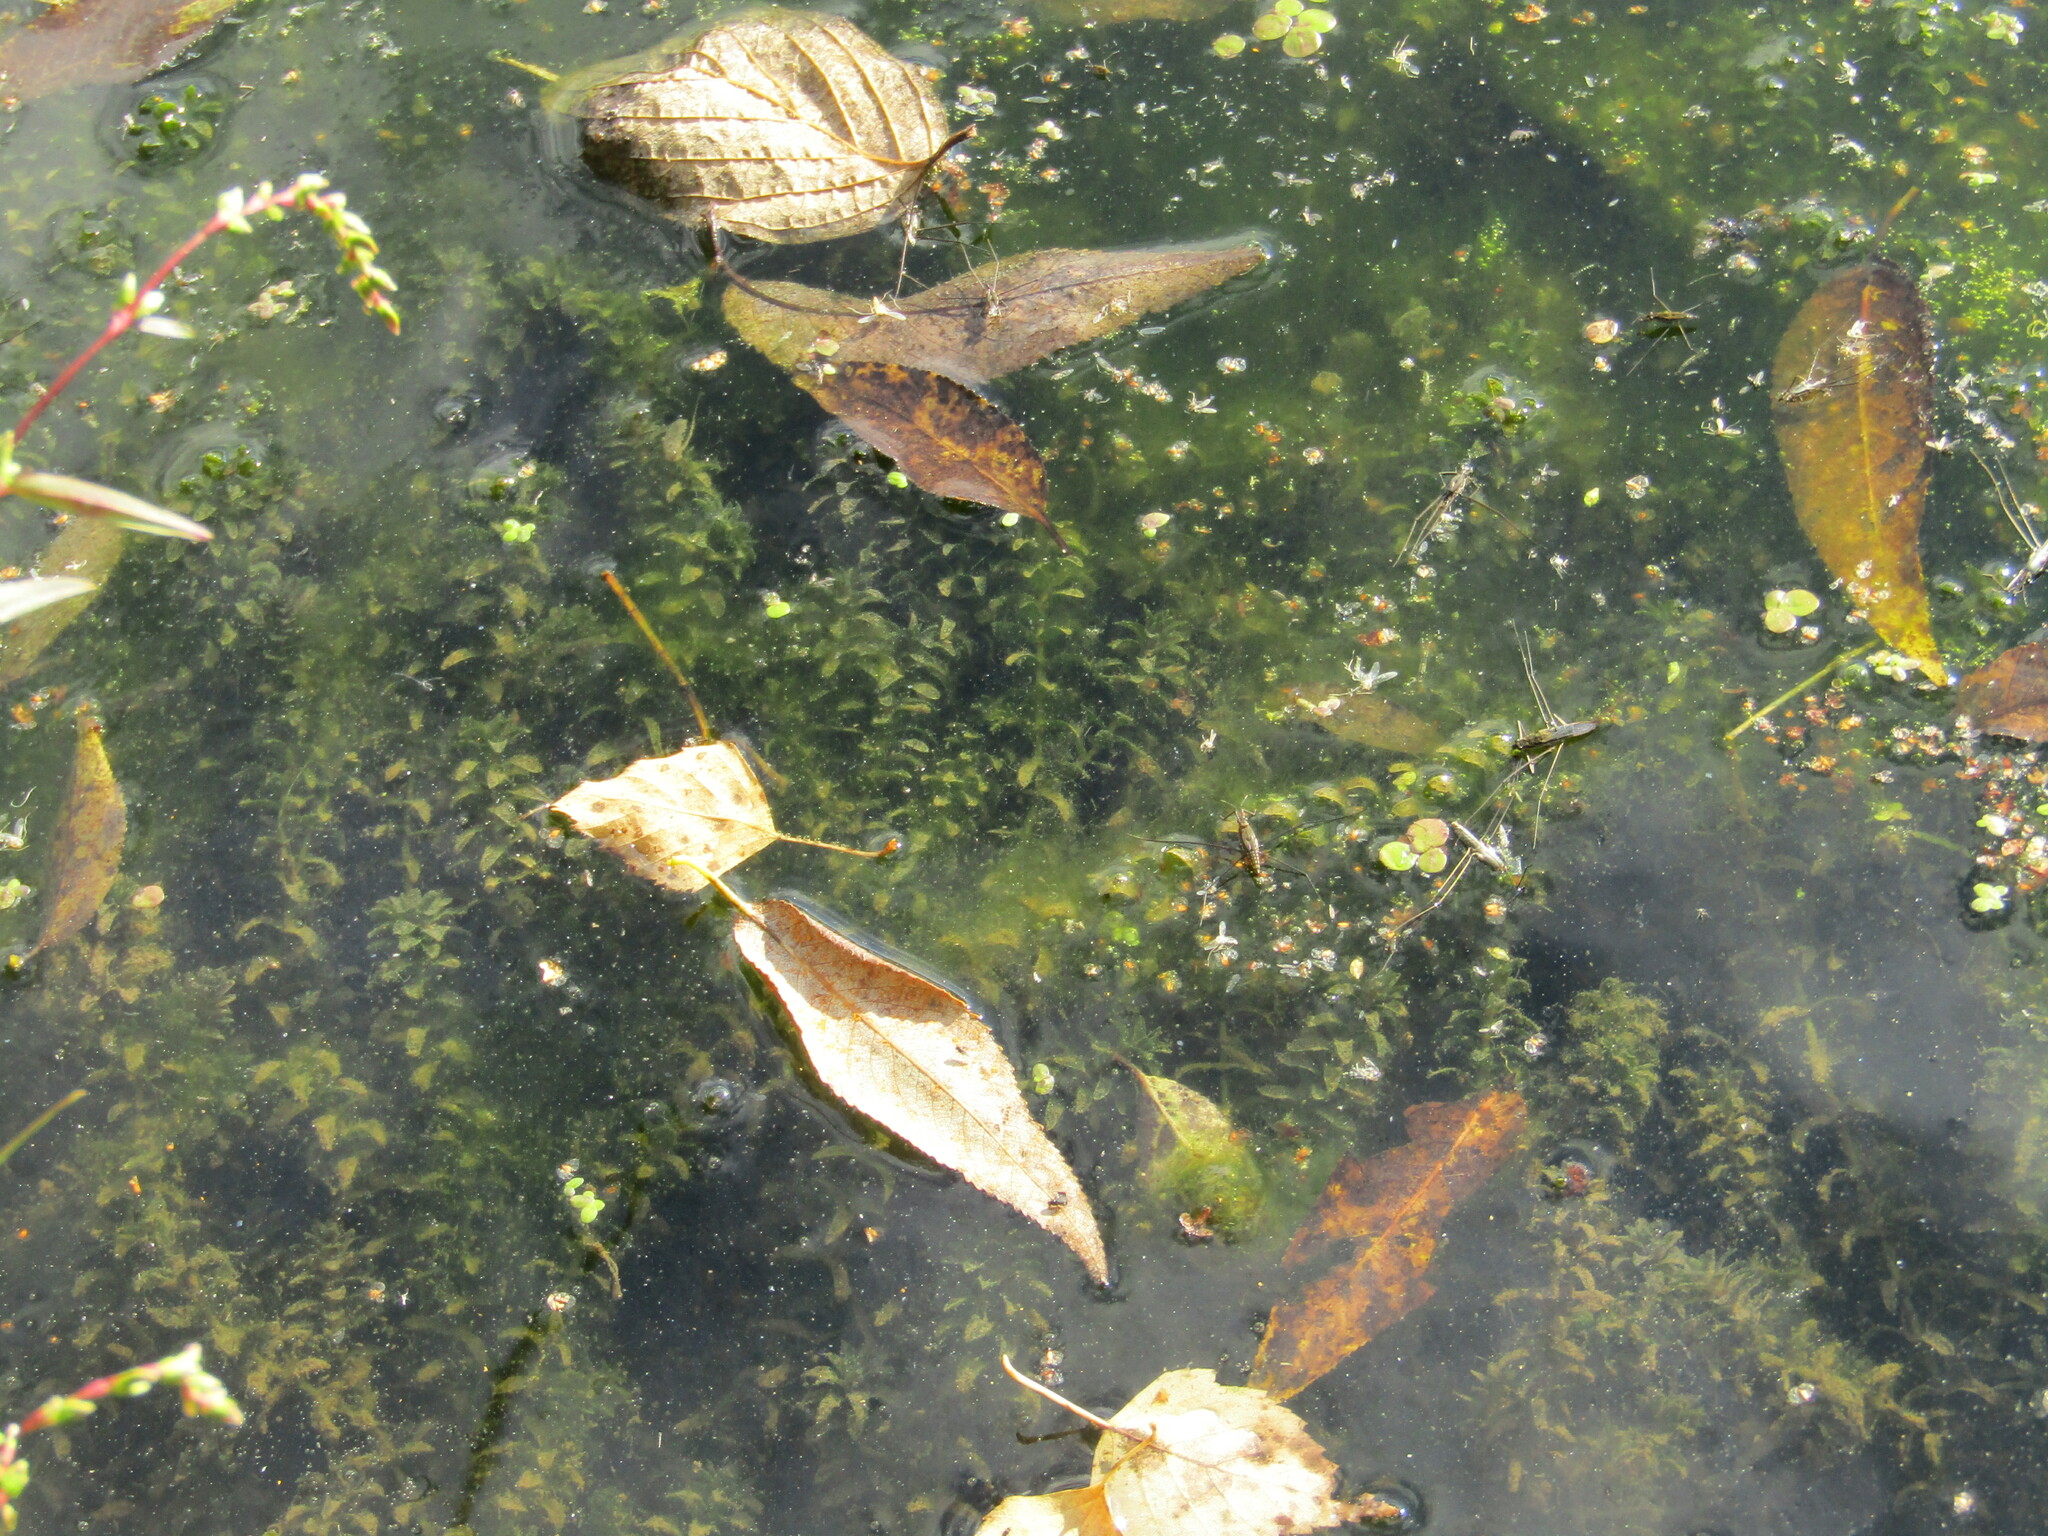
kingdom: Plantae
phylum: Tracheophyta
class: Liliopsida
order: Alismatales
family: Hydrocharitaceae
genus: Elodea
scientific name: Elodea canadensis
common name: Canadian waterweed
